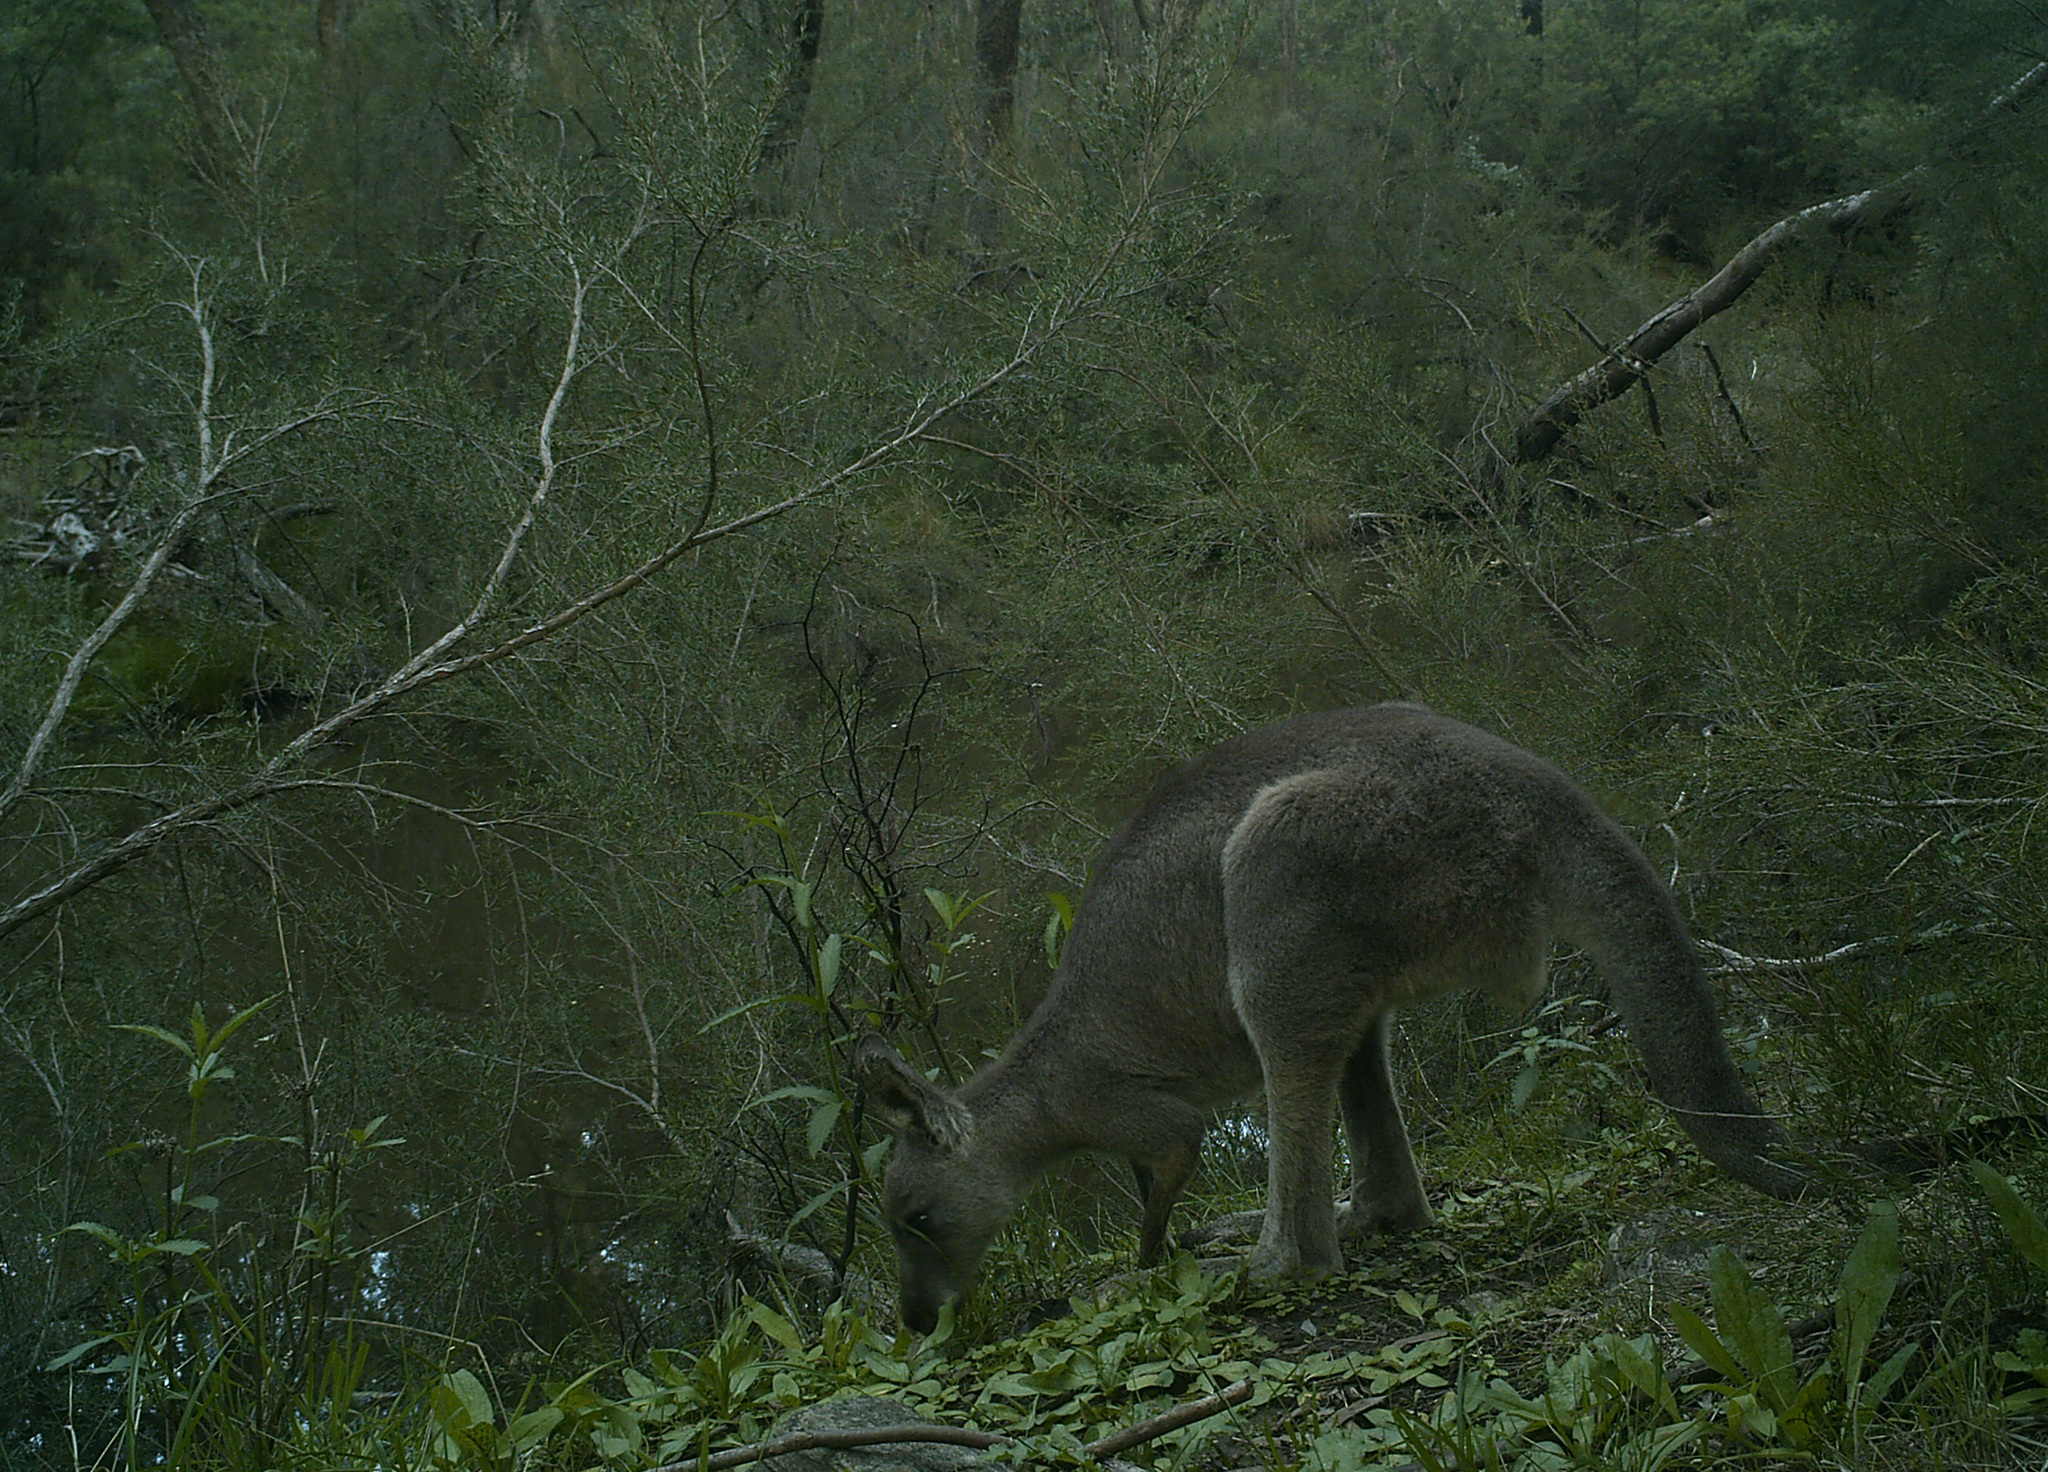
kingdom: Animalia
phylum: Chordata
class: Mammalia
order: Diprotodontia
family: Macropodidae
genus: Macropus
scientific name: Macropus giganteus
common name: Eastern grey kangaroo
